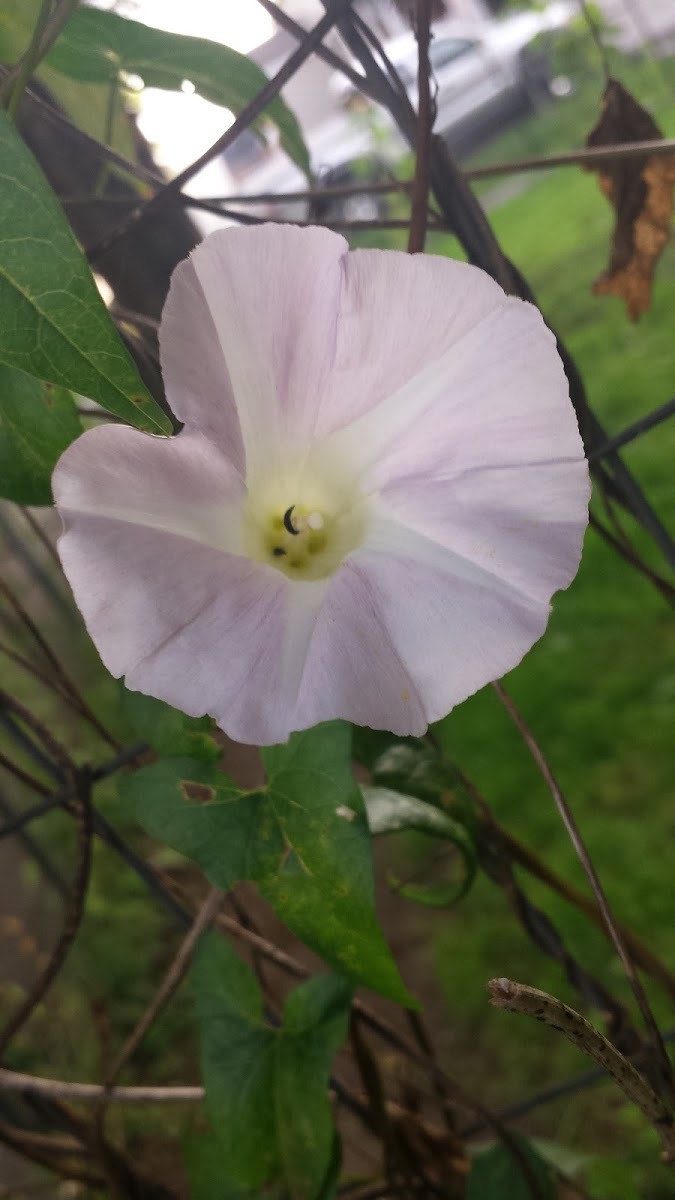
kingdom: Plantae
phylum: Tracheophyta
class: Magnoliopsida
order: Solanales
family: Convolvulaceae
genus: Calystegia
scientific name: Calystegia sepium
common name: Hedge bindweed
